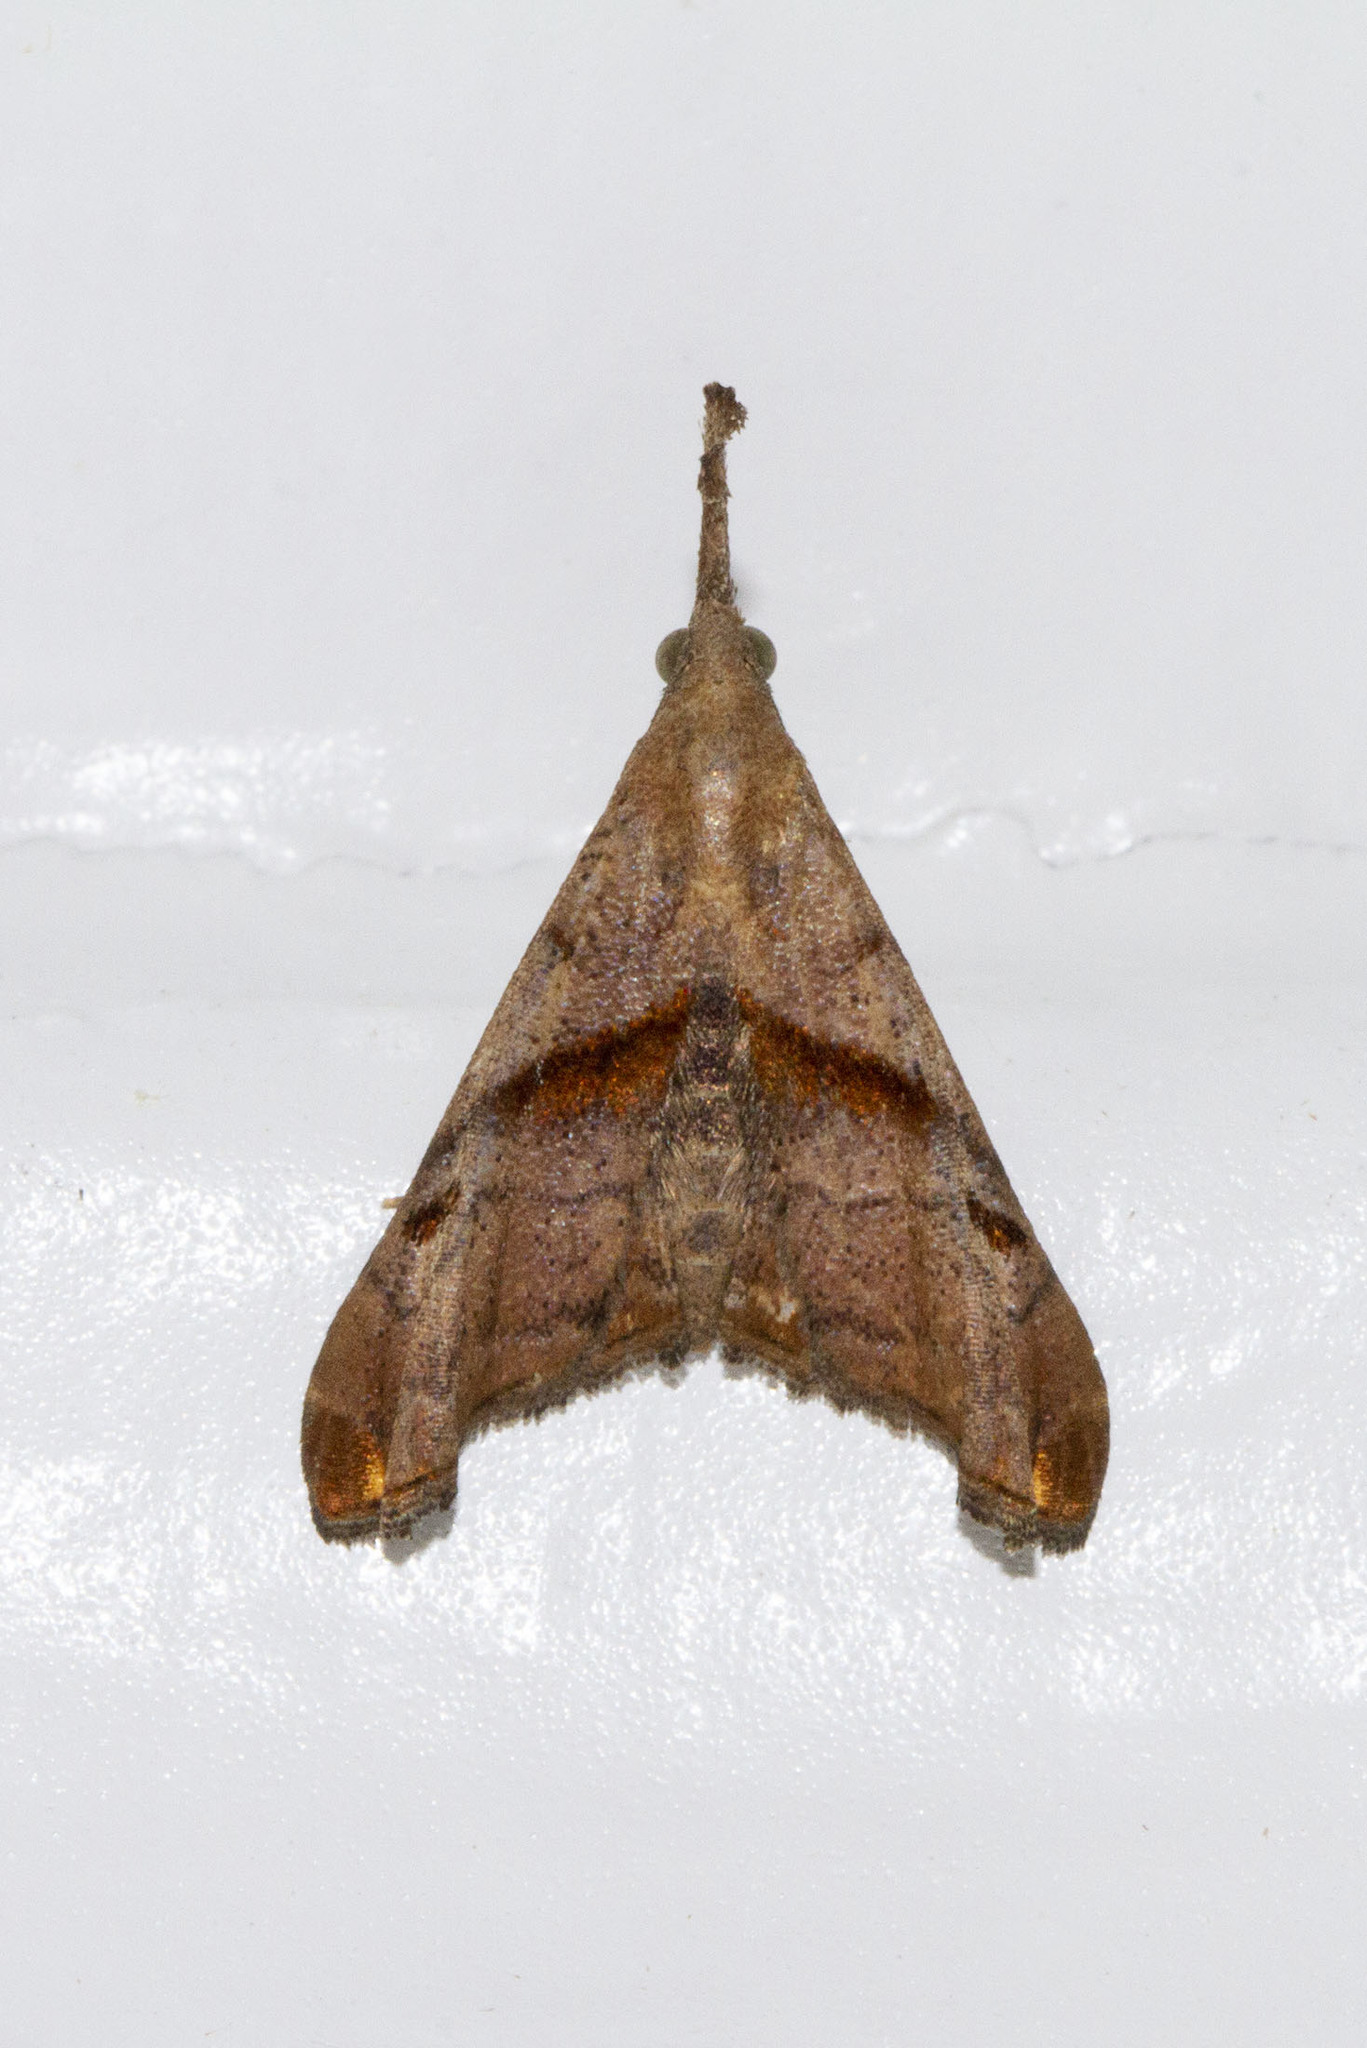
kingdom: Animalia
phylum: Arthropoda
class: Insecta
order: Lepidoptera
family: Erebidae
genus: Palthis
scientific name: Palthis angulalis
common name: Dark-spotted palthis moth
